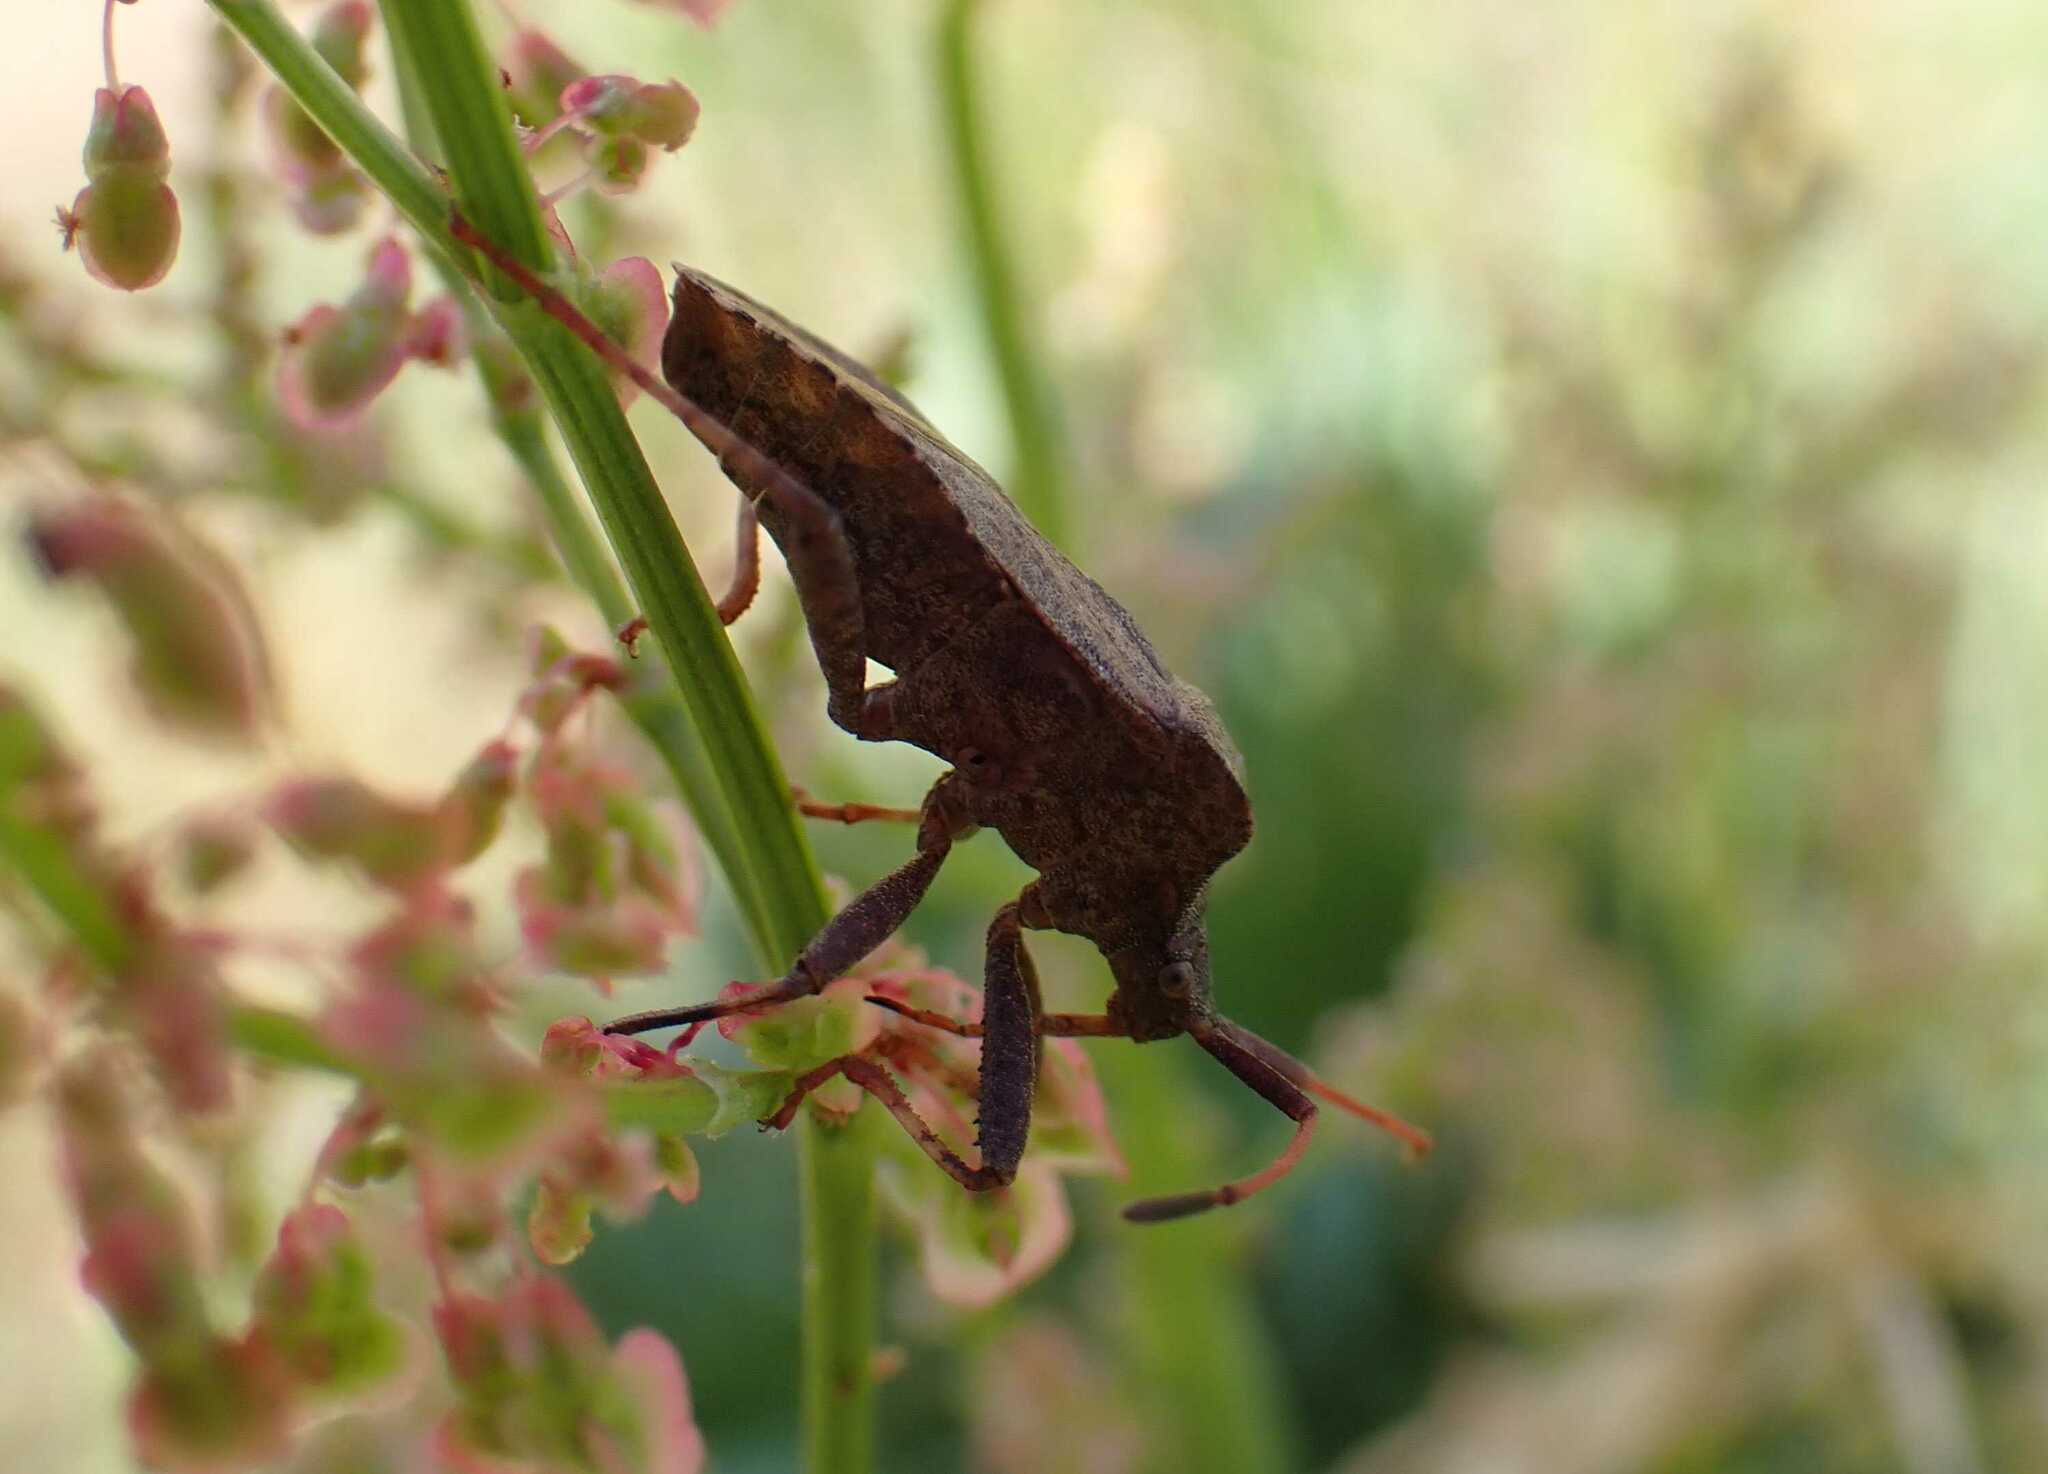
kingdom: Animalia
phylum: Arthropoda
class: Insecta
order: Hemiptera
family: Coreidae
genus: Coreus
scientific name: Coreus marginatus
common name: Dock bug
